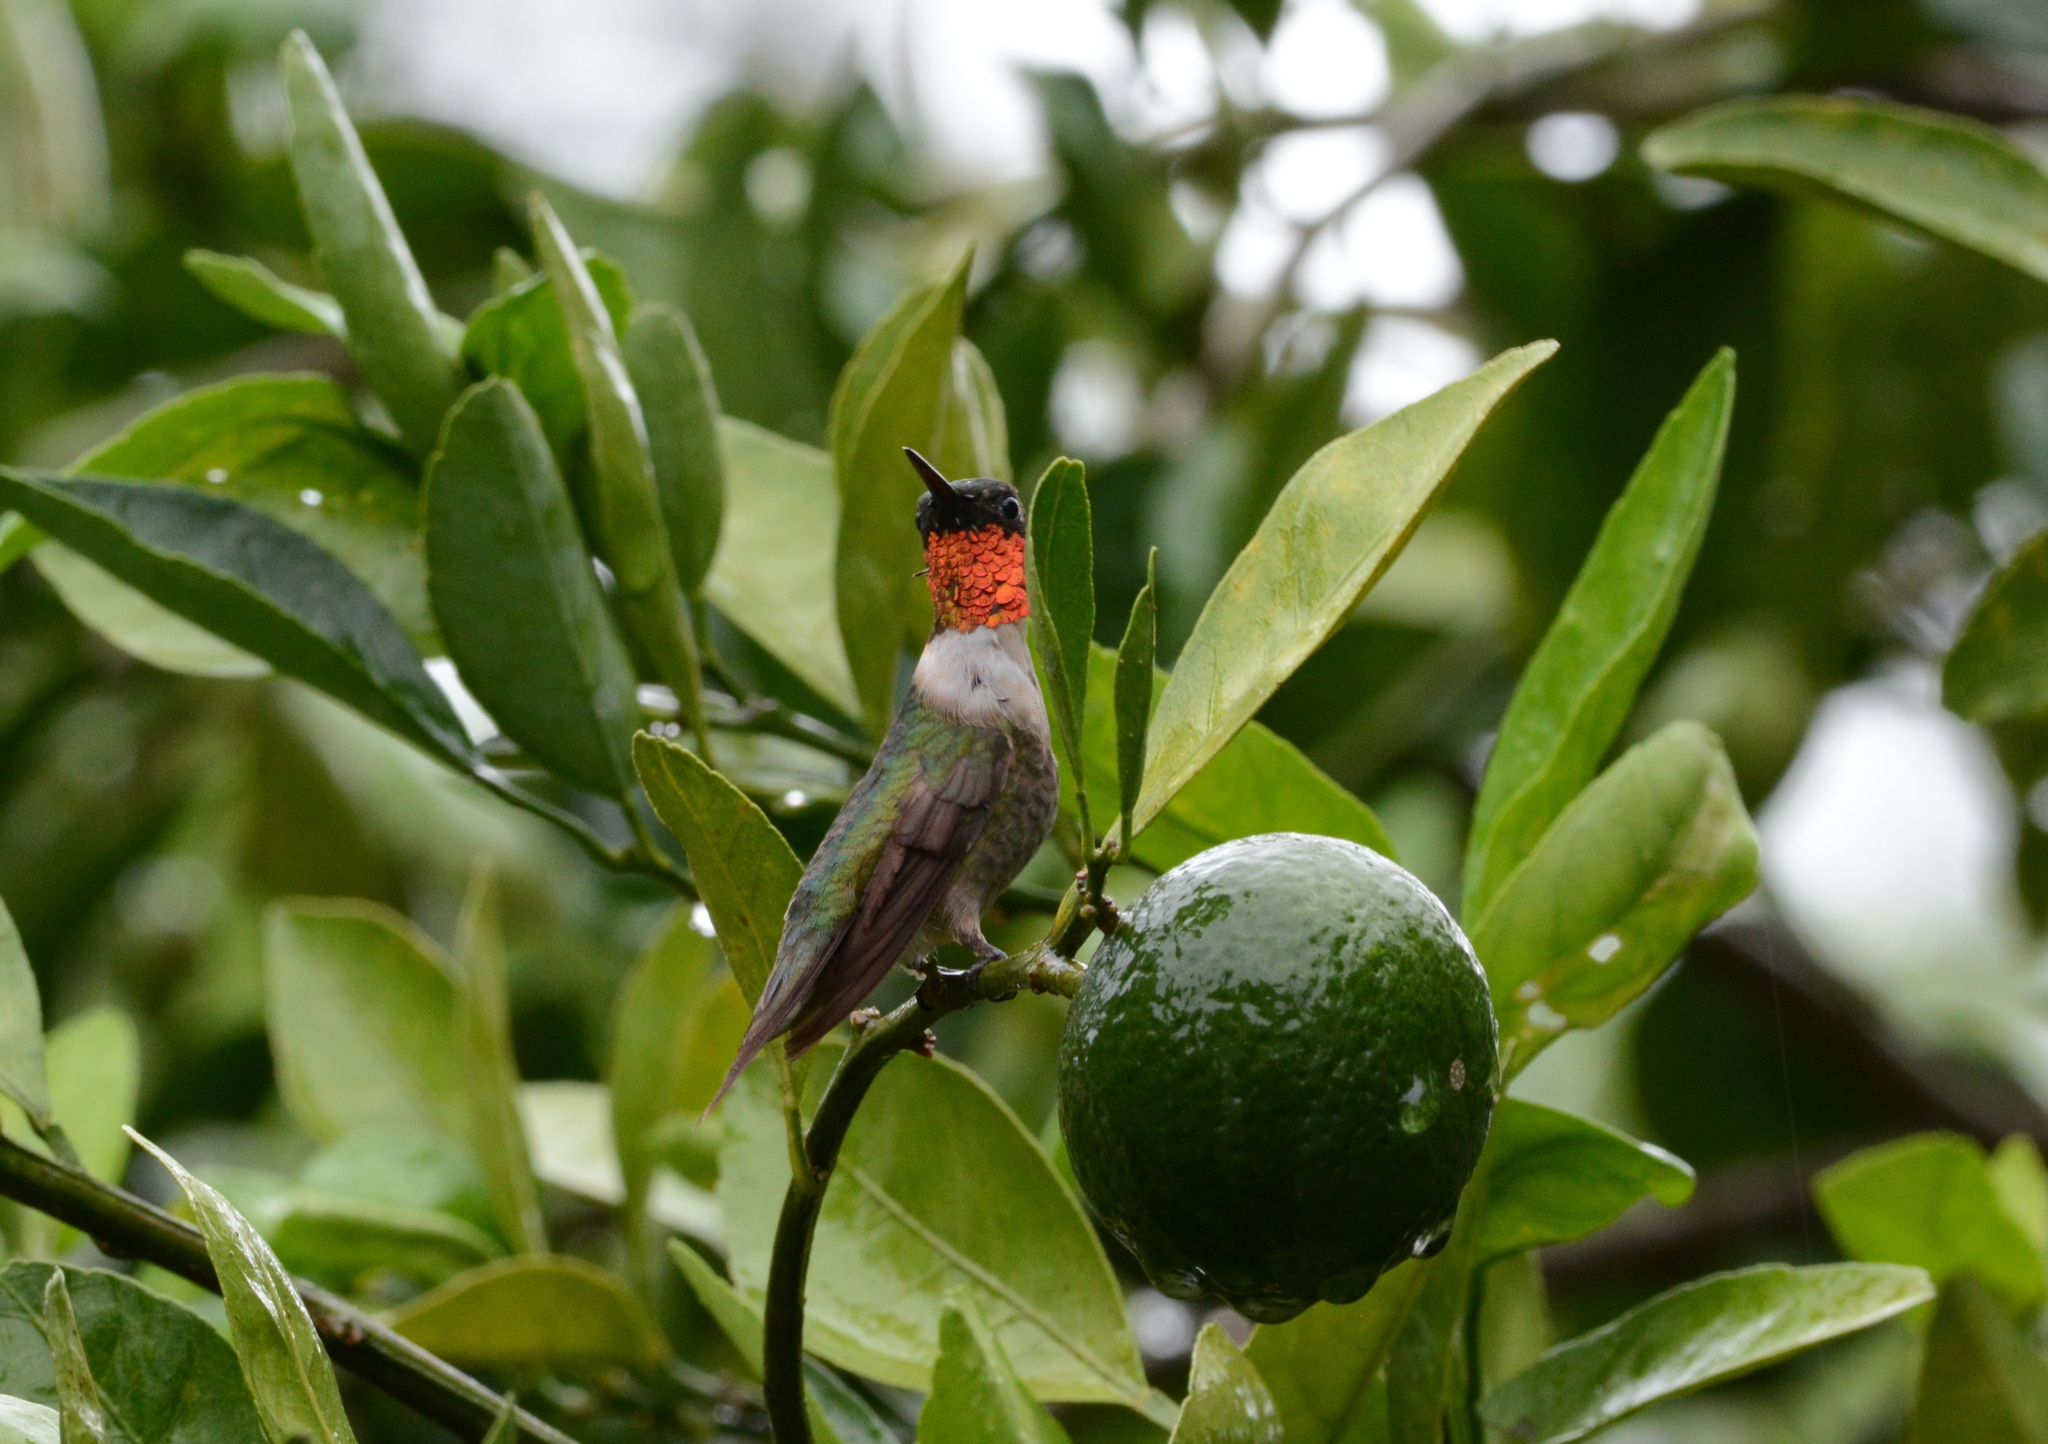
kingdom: Animalia
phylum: Chordata
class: Aves
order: Apodiformes
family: Trochilidae
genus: Archilochus
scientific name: Archilochus colubris
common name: Ruby-throated hummingbird
